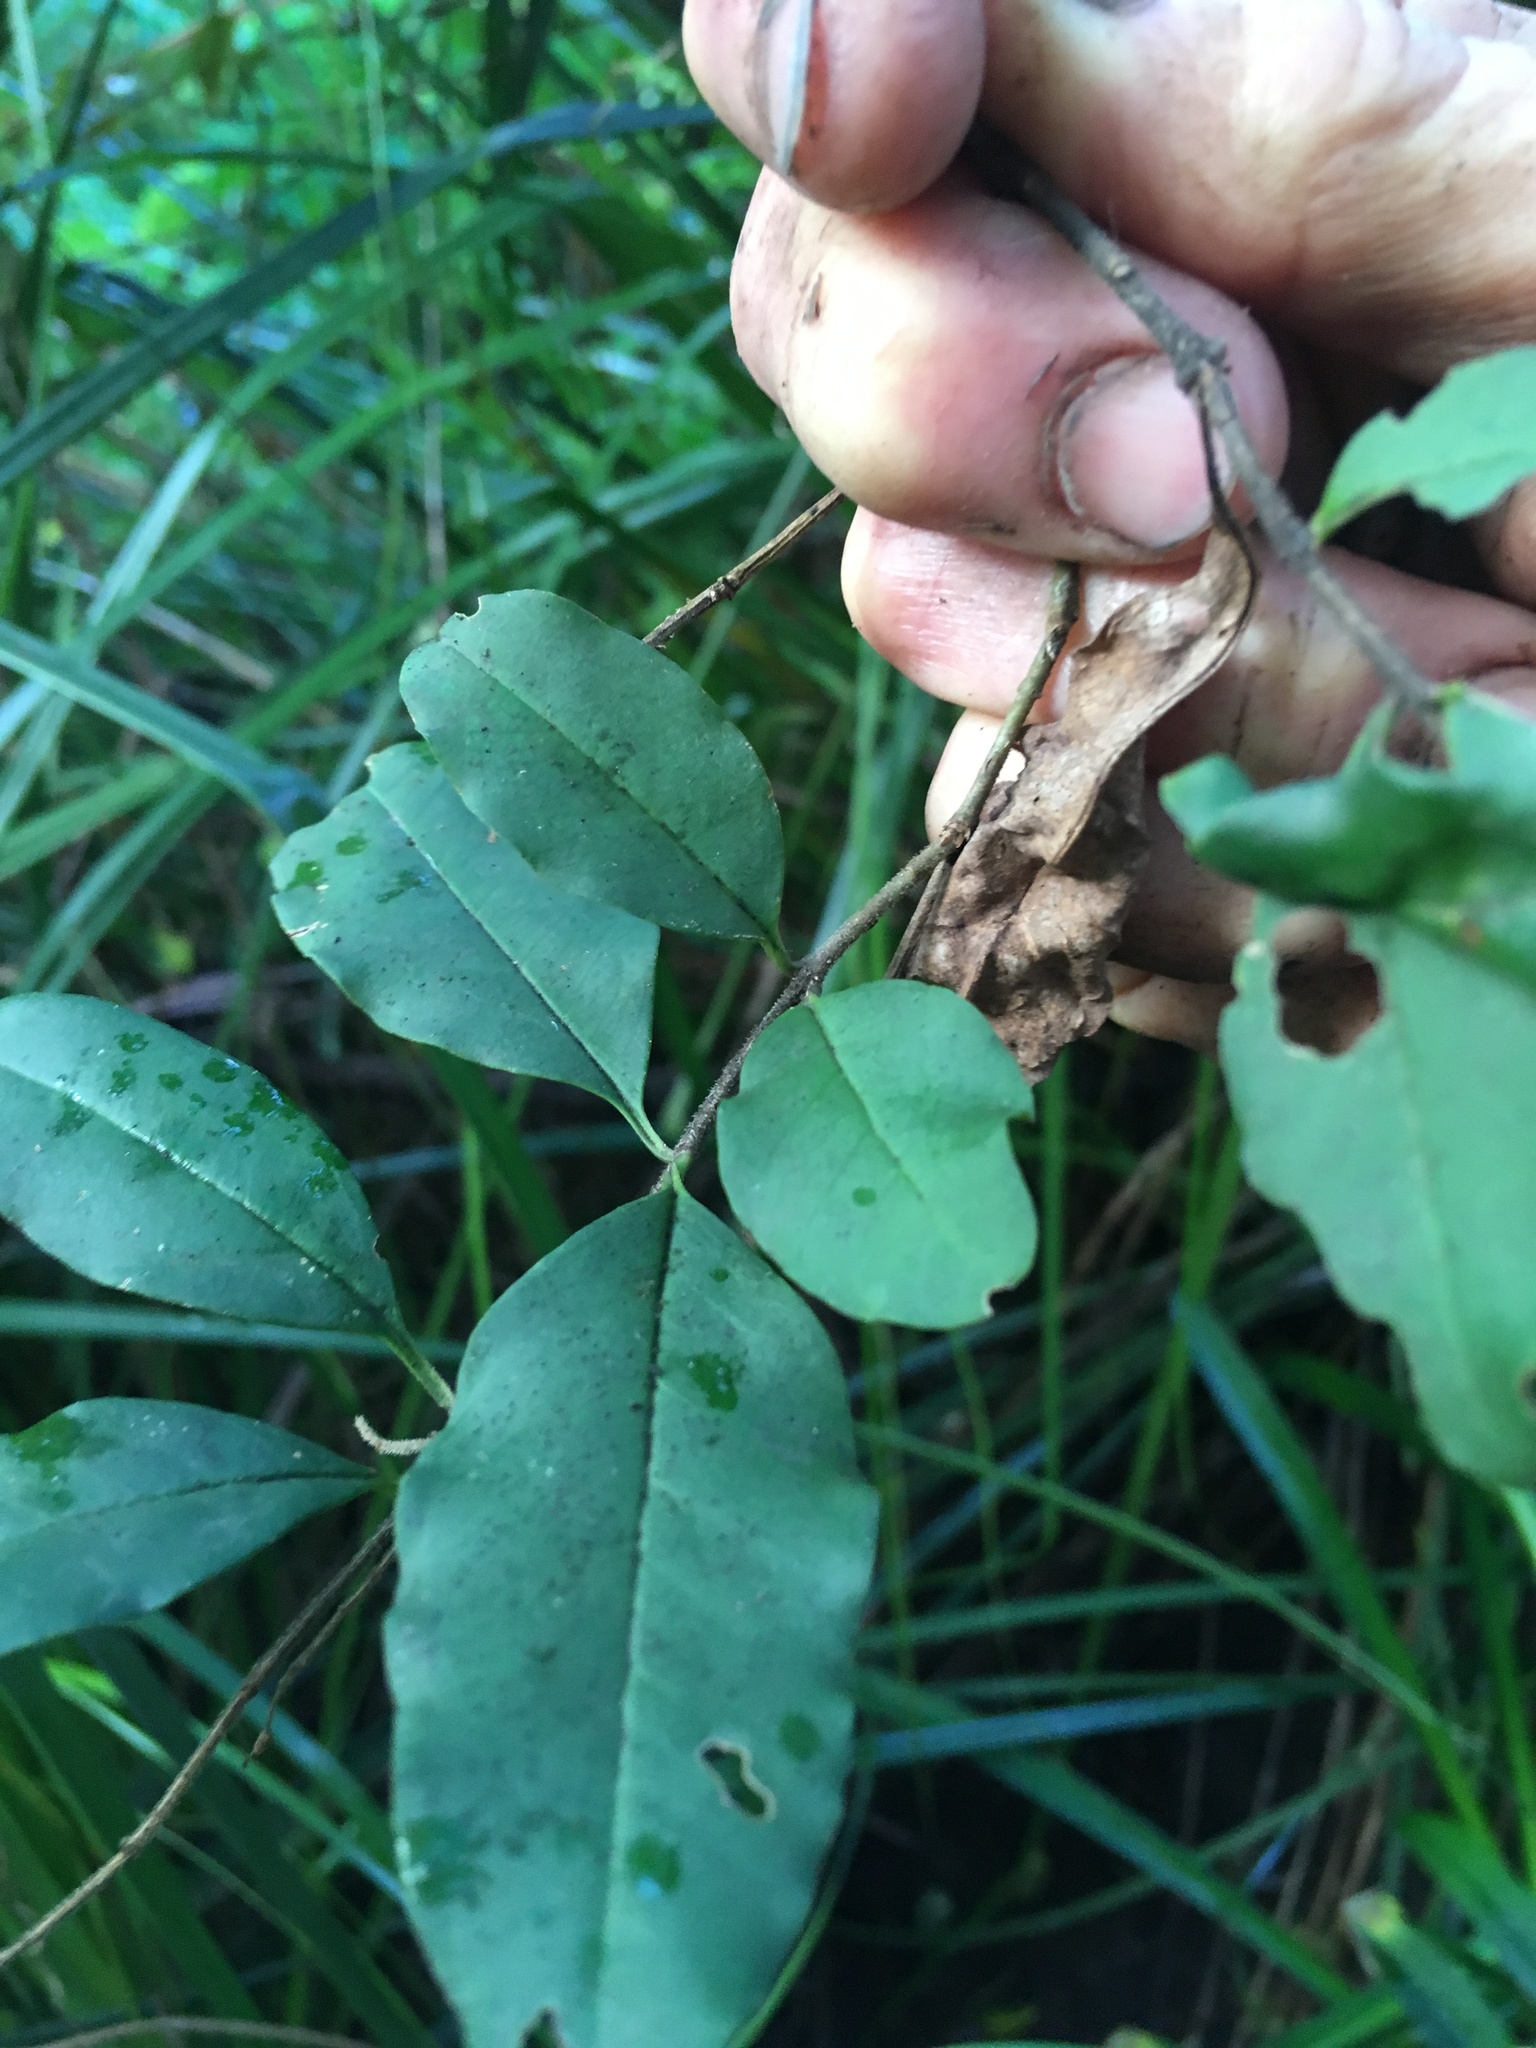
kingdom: Plantae
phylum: Tracheophyta
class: Magnoliopsida
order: Lamiales
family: Oleaceae
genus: Ligustrum
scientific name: Ligustrum sinense
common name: Chinese privet
